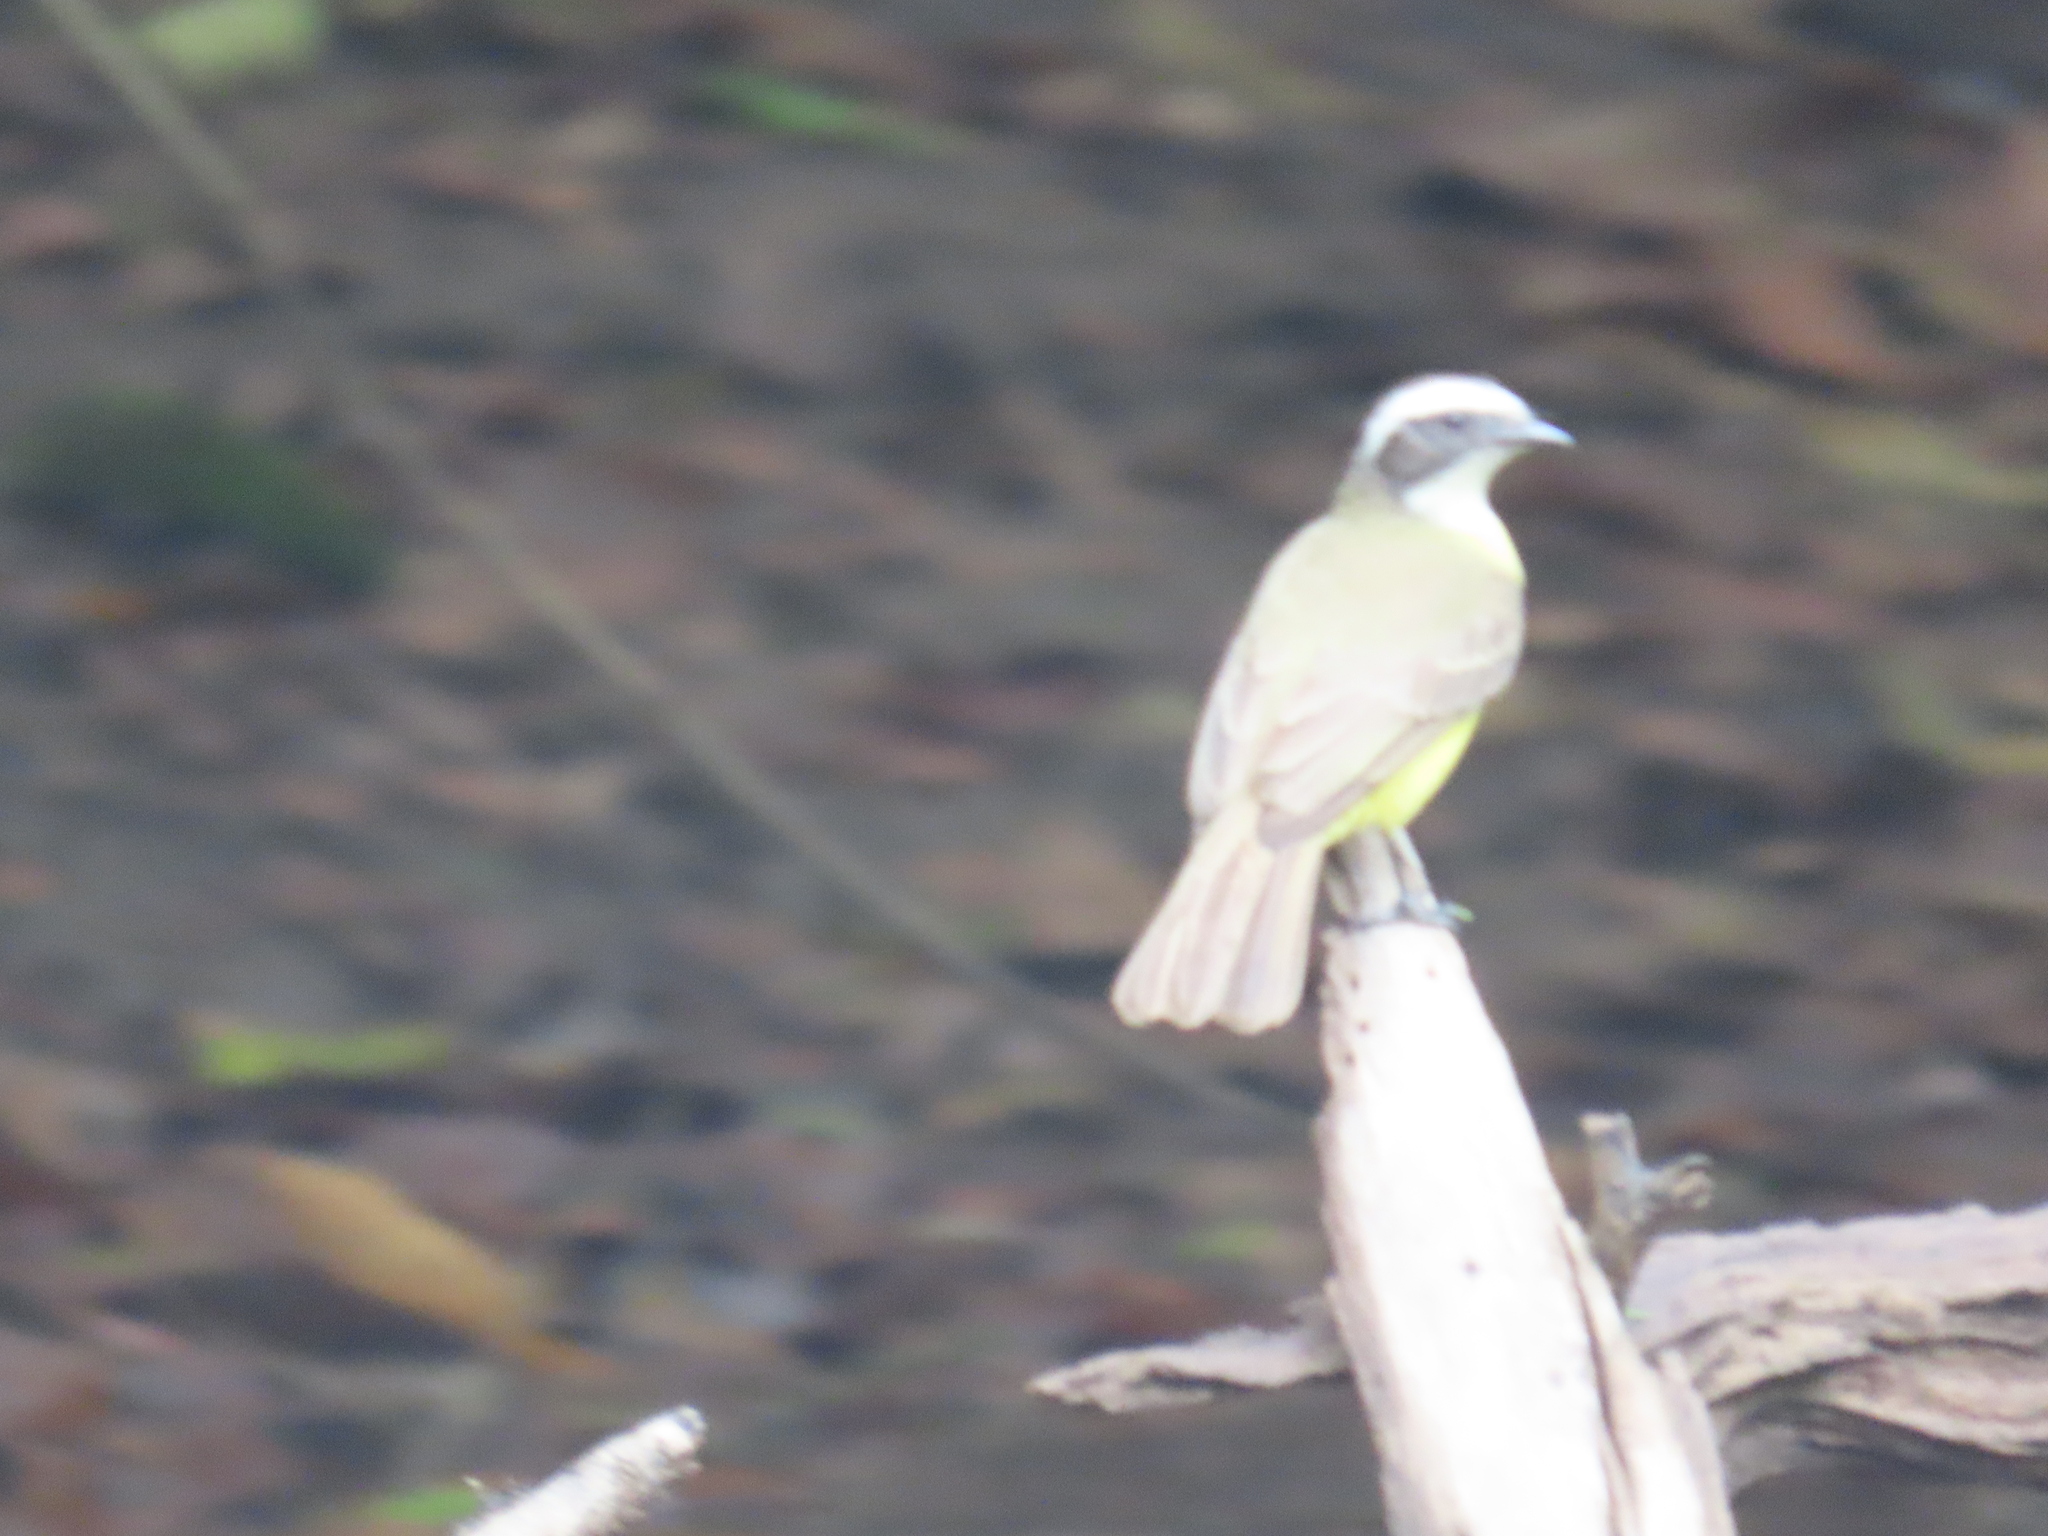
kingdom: Animalia
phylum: Chordata
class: Aves
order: Passeriformes
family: Tyrannidae
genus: Myiozetetes
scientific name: Myiozetetes similis
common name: Social flycatcher
